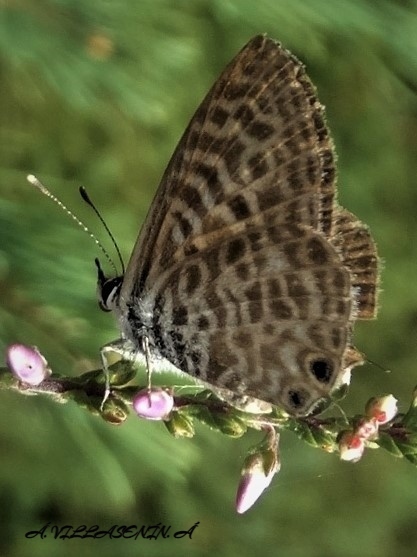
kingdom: Animalia
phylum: Arthropoda
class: Insecta
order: Lepidoptera
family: Lycaenidae
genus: Leptotes
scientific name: Leptotes pirithous
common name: Lang's short-tailed blue
